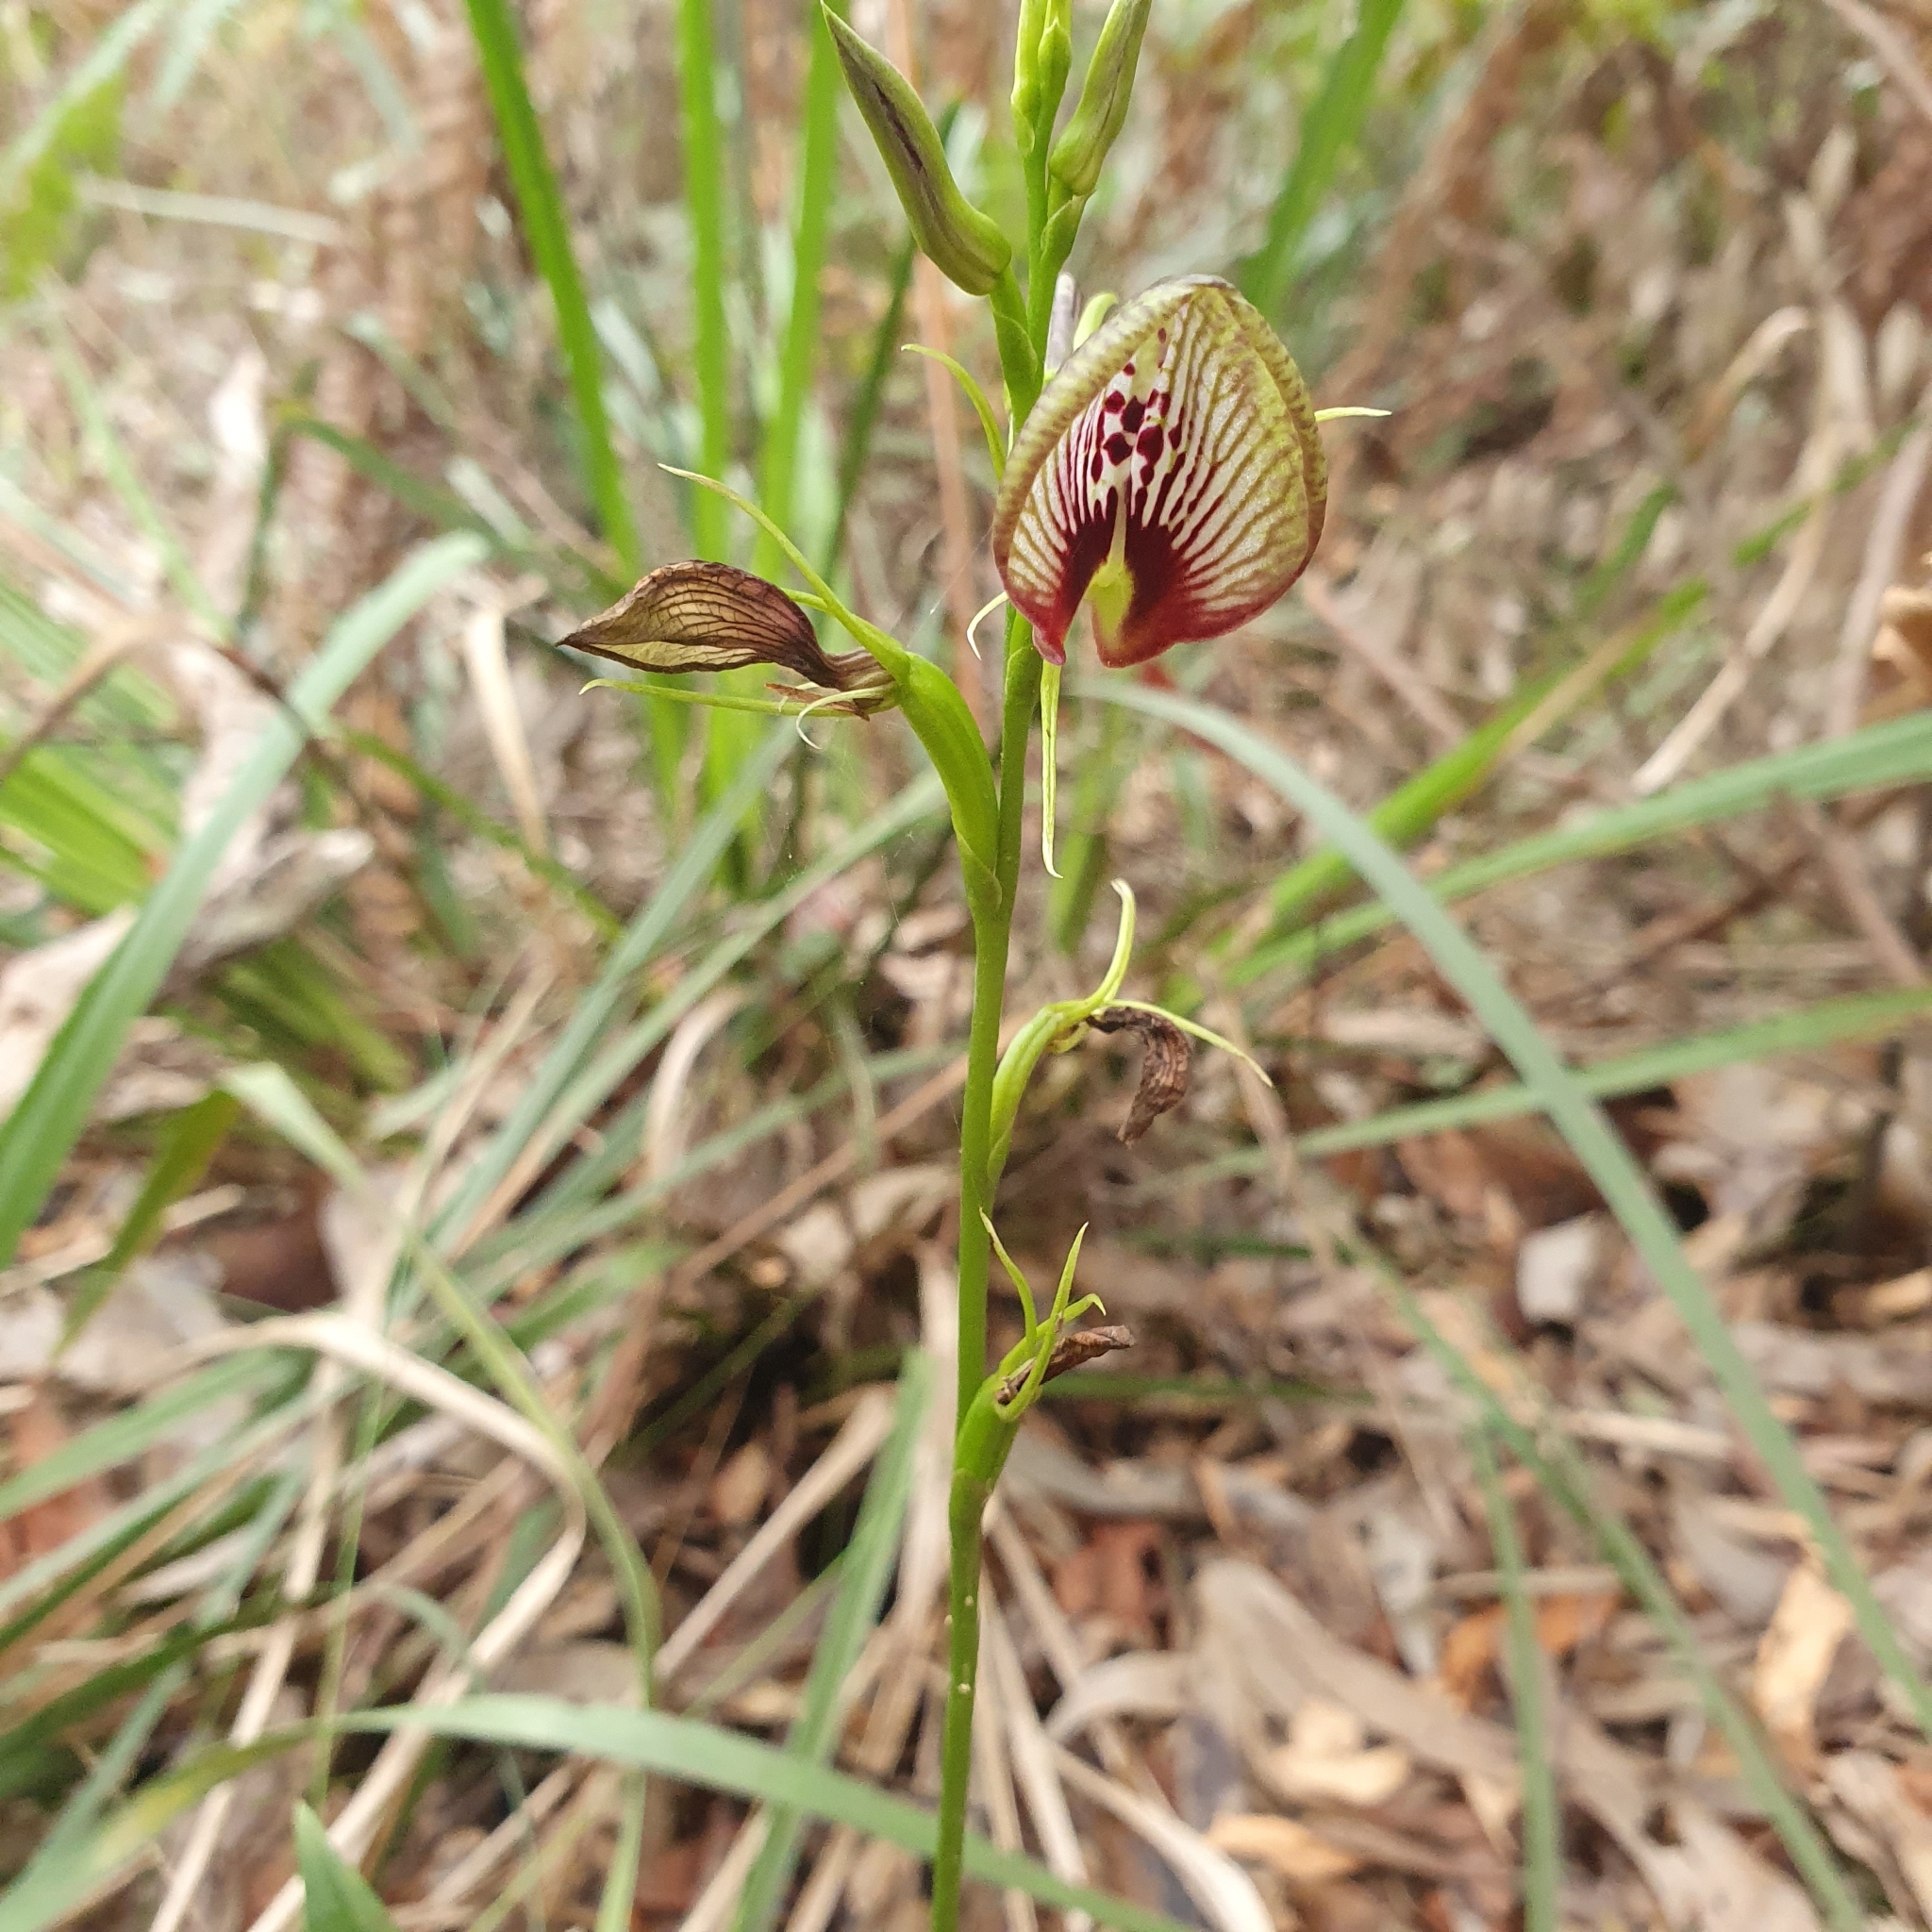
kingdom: Plantae
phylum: Tracheophyta
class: Liliopsida
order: Asparagales
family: Orchidaceae
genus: Cryptostylis
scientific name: Cryptostylis erecta
